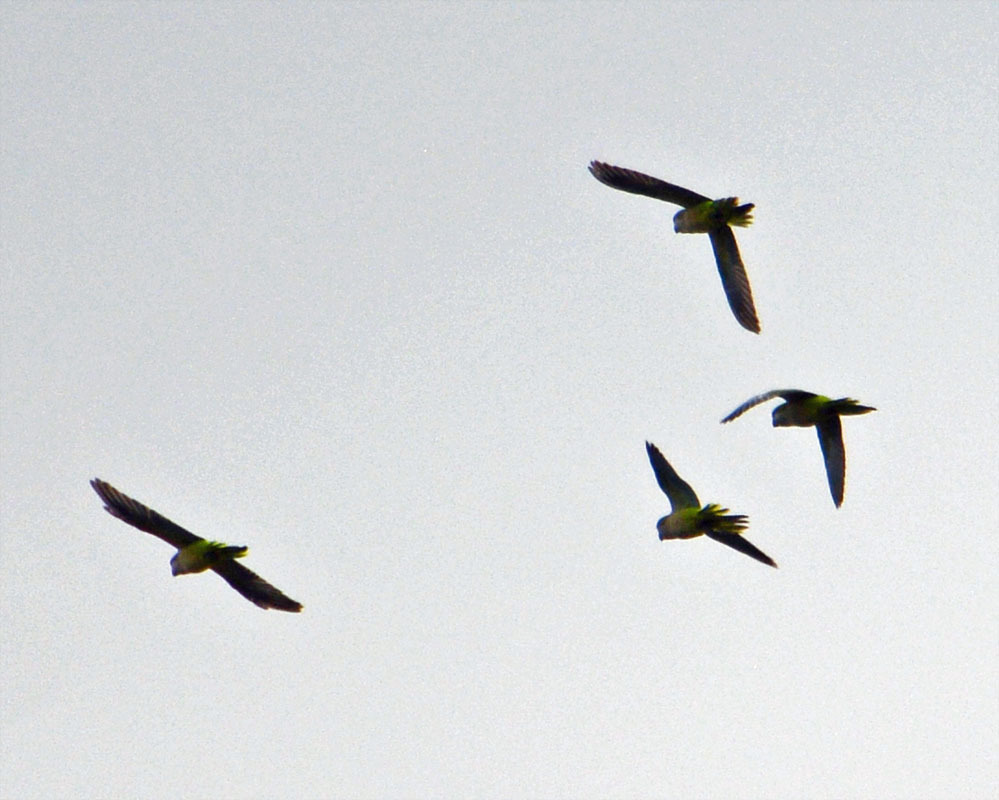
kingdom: Animalia
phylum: Chordata
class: Aves
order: Psittaciformes
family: Psittacidae
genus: Myiopsitta
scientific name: Myiopsitta monachus
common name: Monk parakeet
